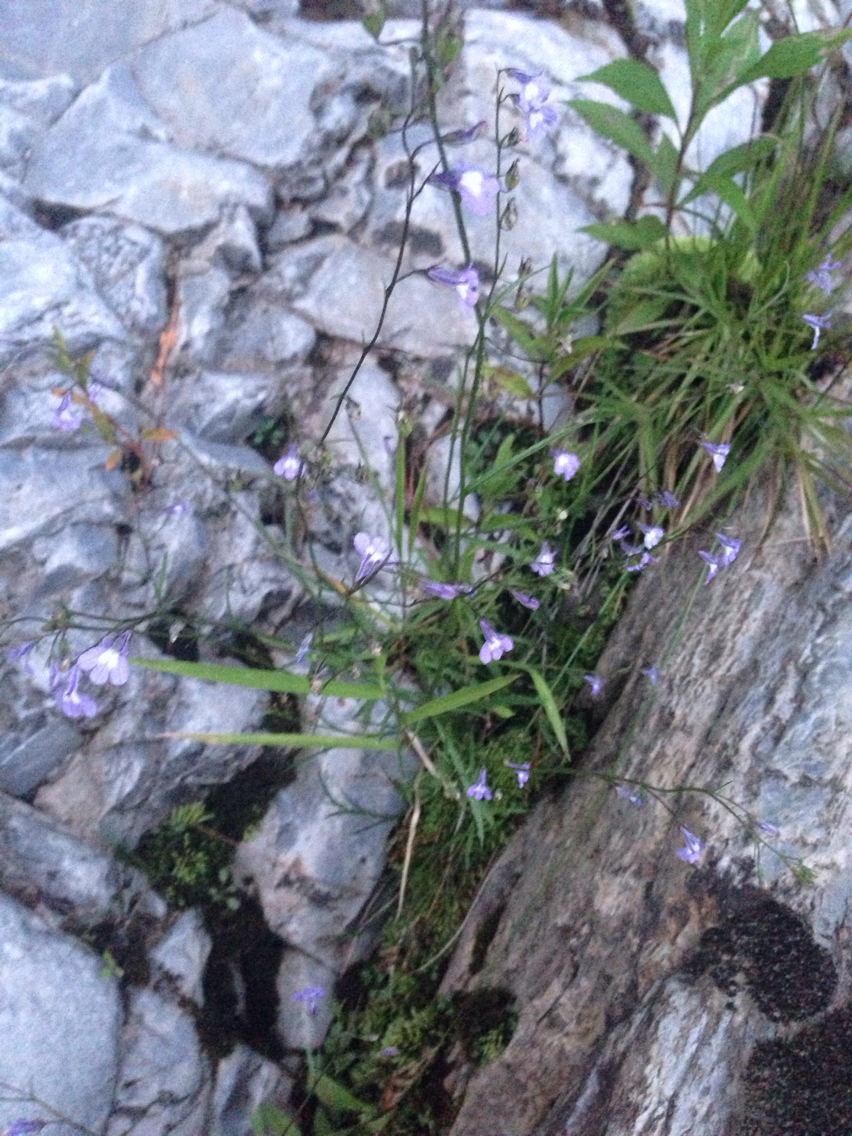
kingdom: Plantae
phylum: Tracheophyta
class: Magnoliopsida
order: Asterales
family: Campanulaceae
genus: Lobelia
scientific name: Lobelia kalmii
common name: Kalm's lobelia
